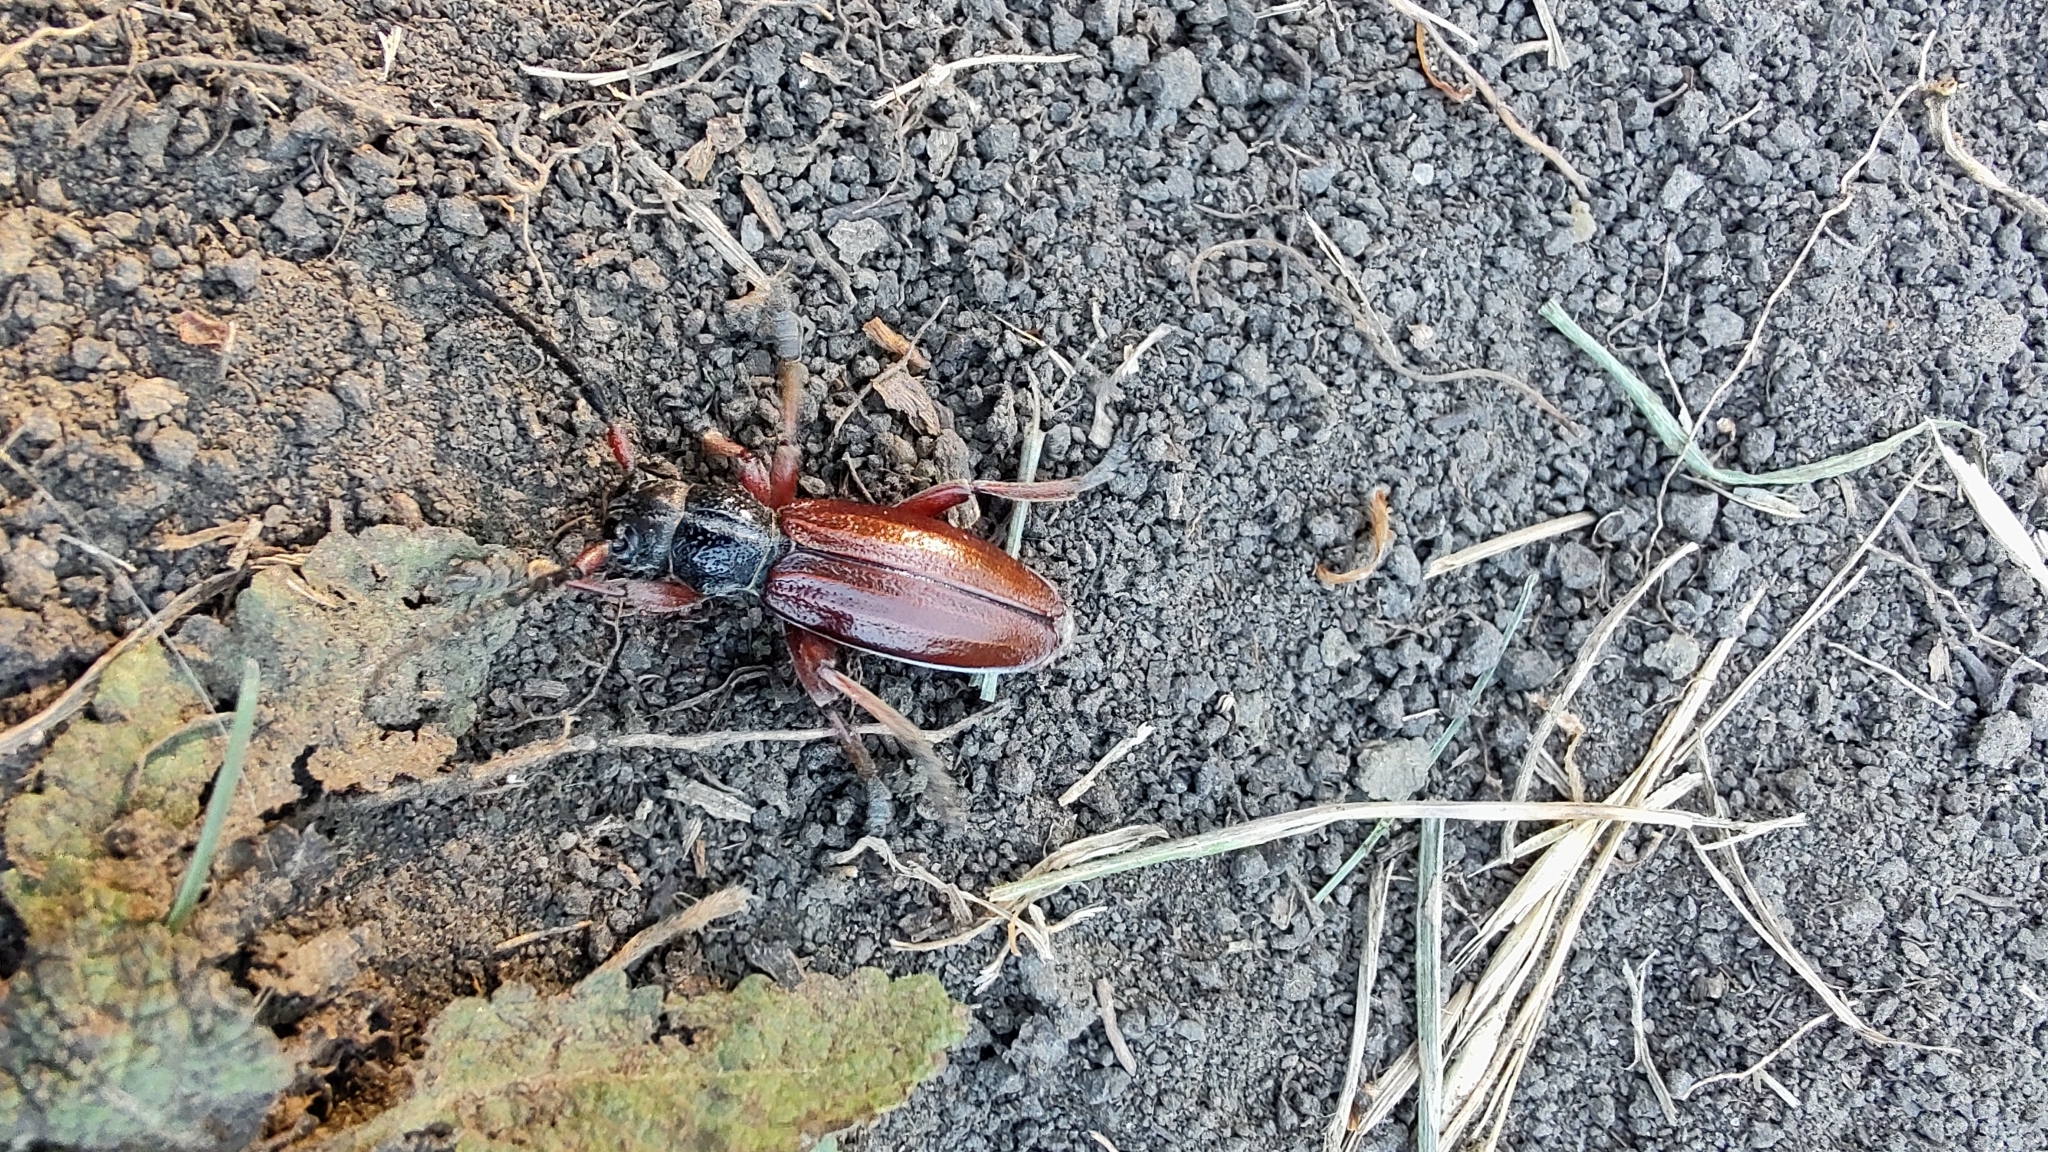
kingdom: Animalia
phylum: Arthropoda
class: Insecta
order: Coleoptera
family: Cerambycidae
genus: Dorcadion
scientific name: Dorcadion fulvum
